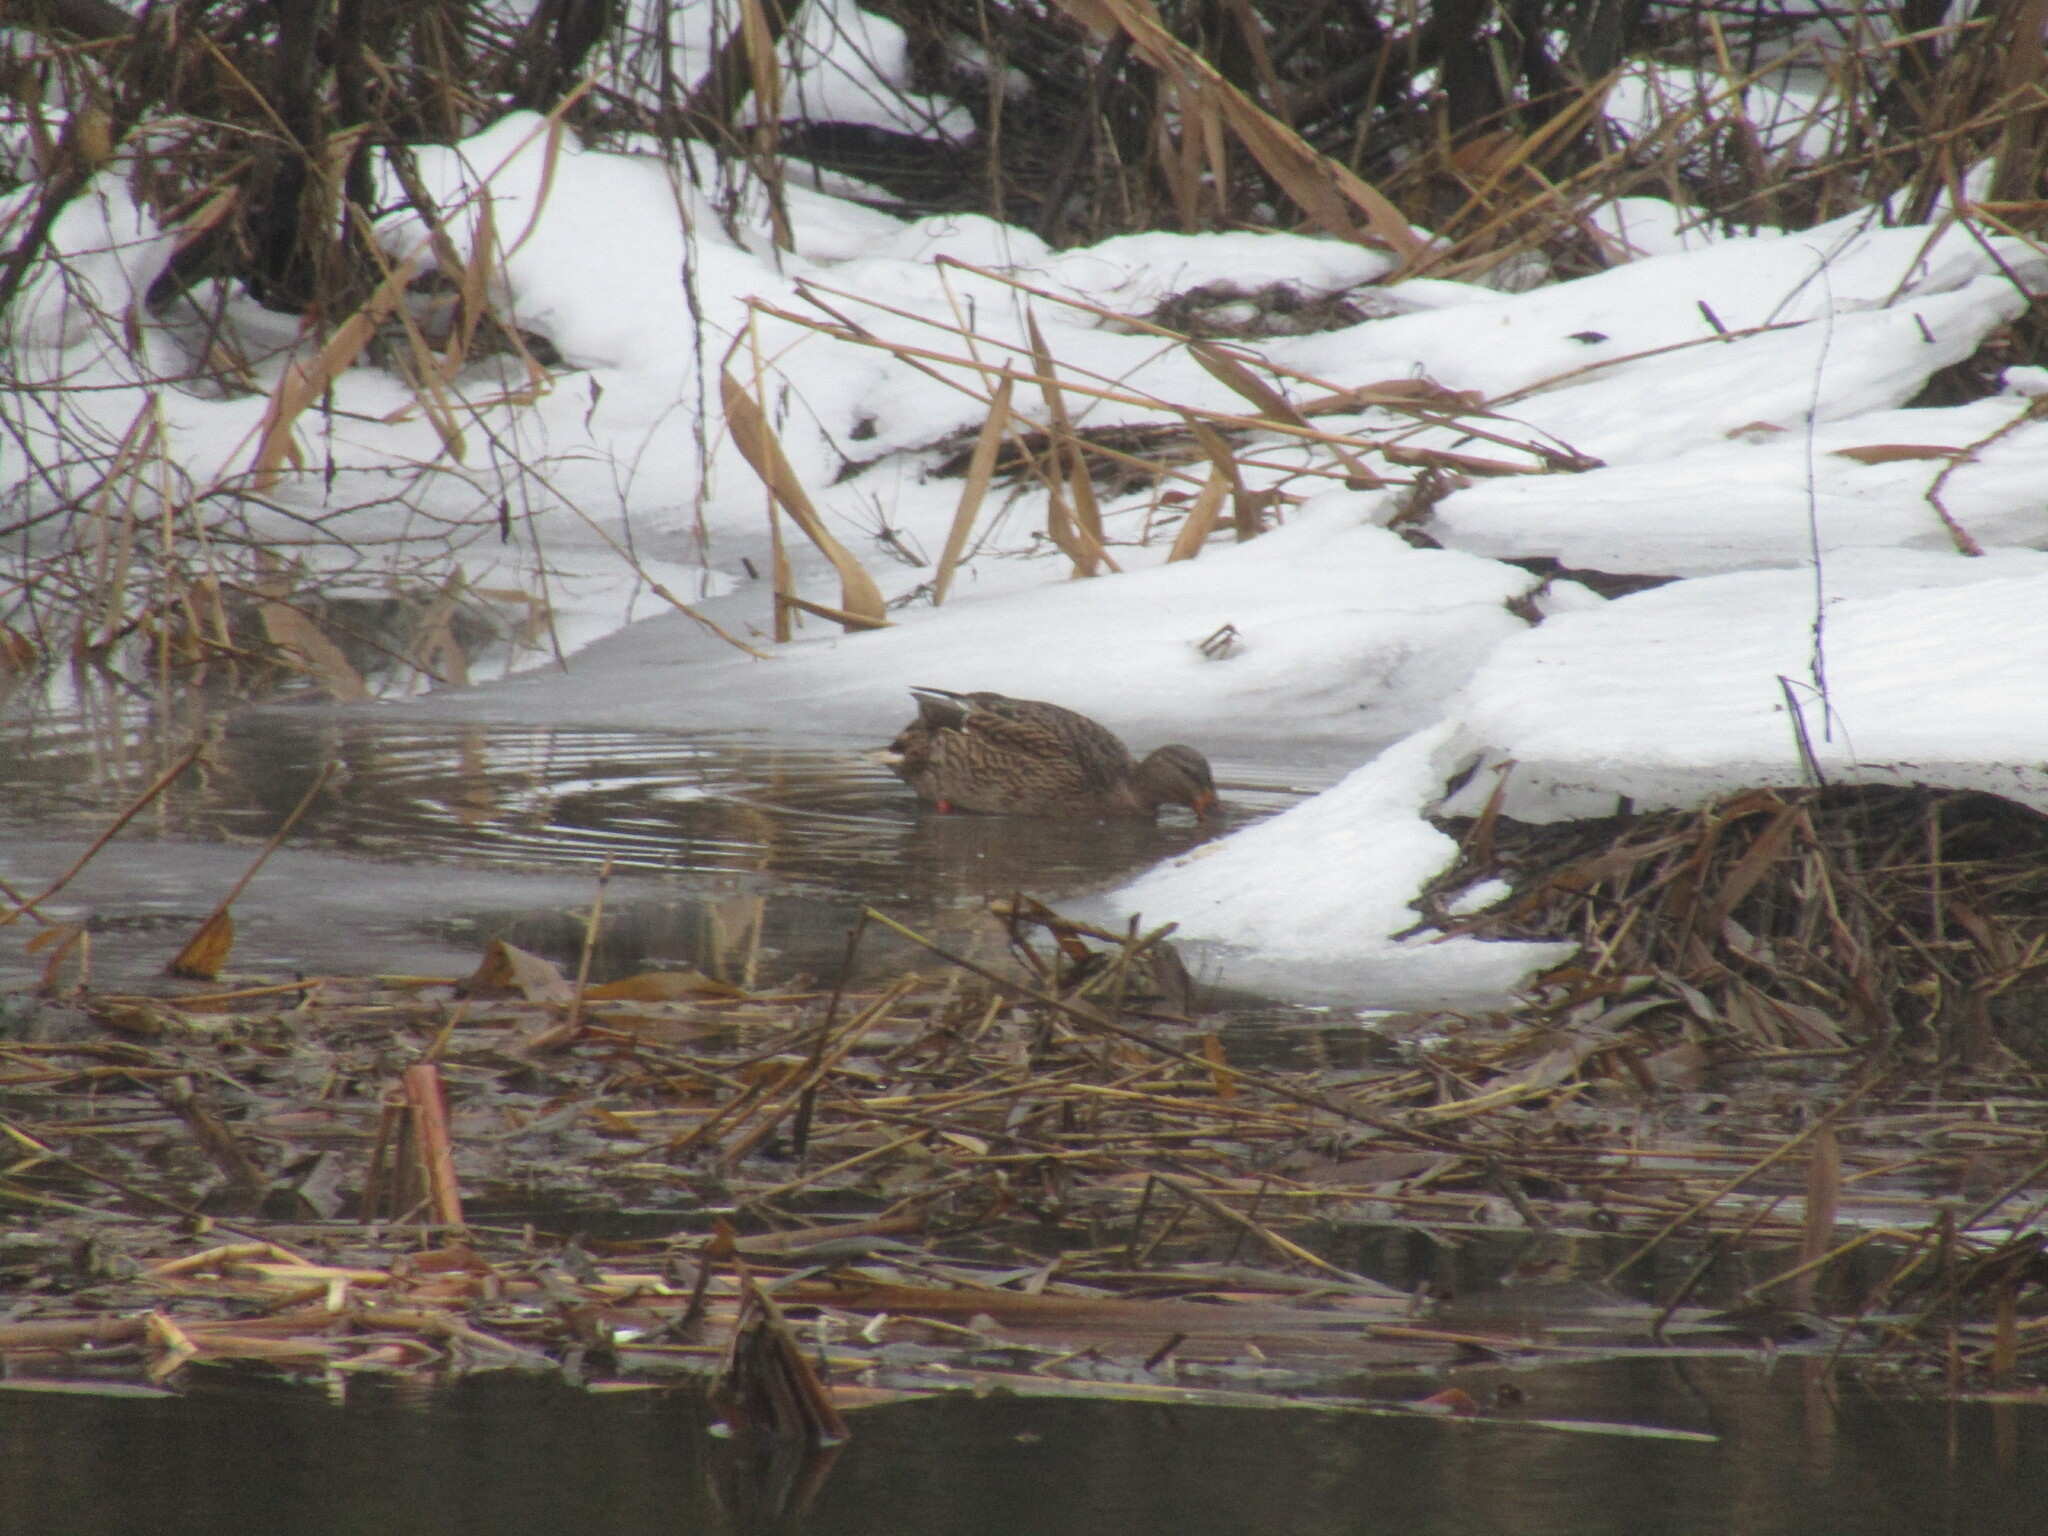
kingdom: Animalia
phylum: Chordata
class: Aves
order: Anseriformes
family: Anatidae
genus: Anas
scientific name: Anas platyrhynchos
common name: Mallard
